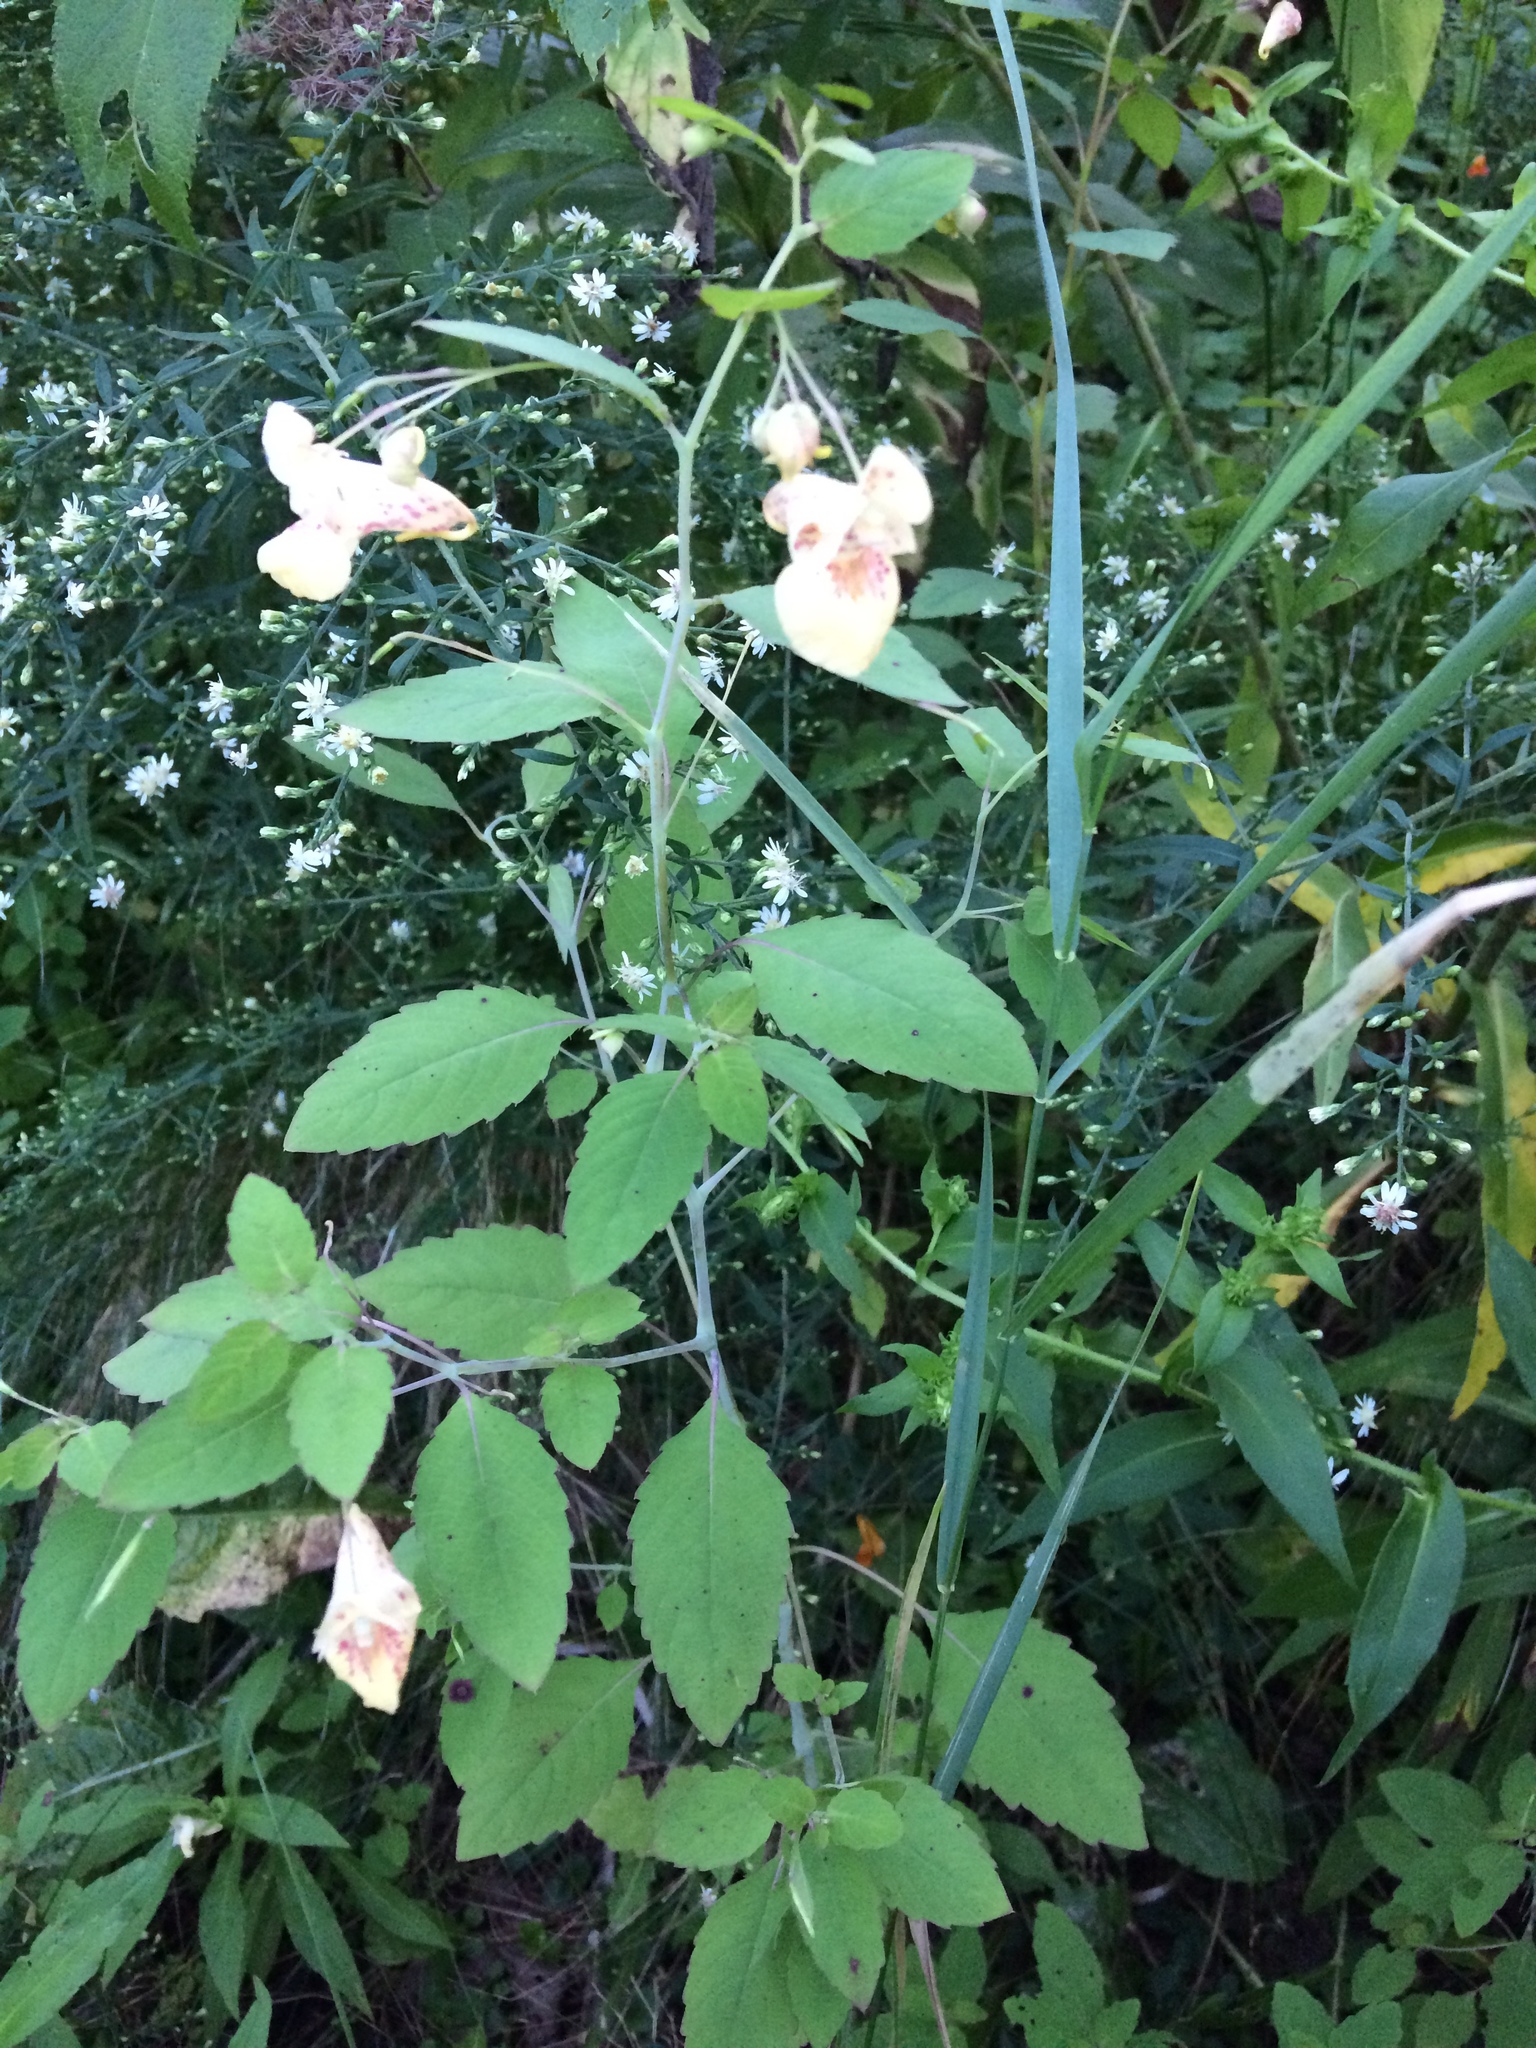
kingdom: Plantae
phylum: Tracheophyta
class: Magnoliopsida
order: Ericales
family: Balsaminaceae
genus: Impatiens
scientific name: Impatiens capensis
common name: Orange balsam
